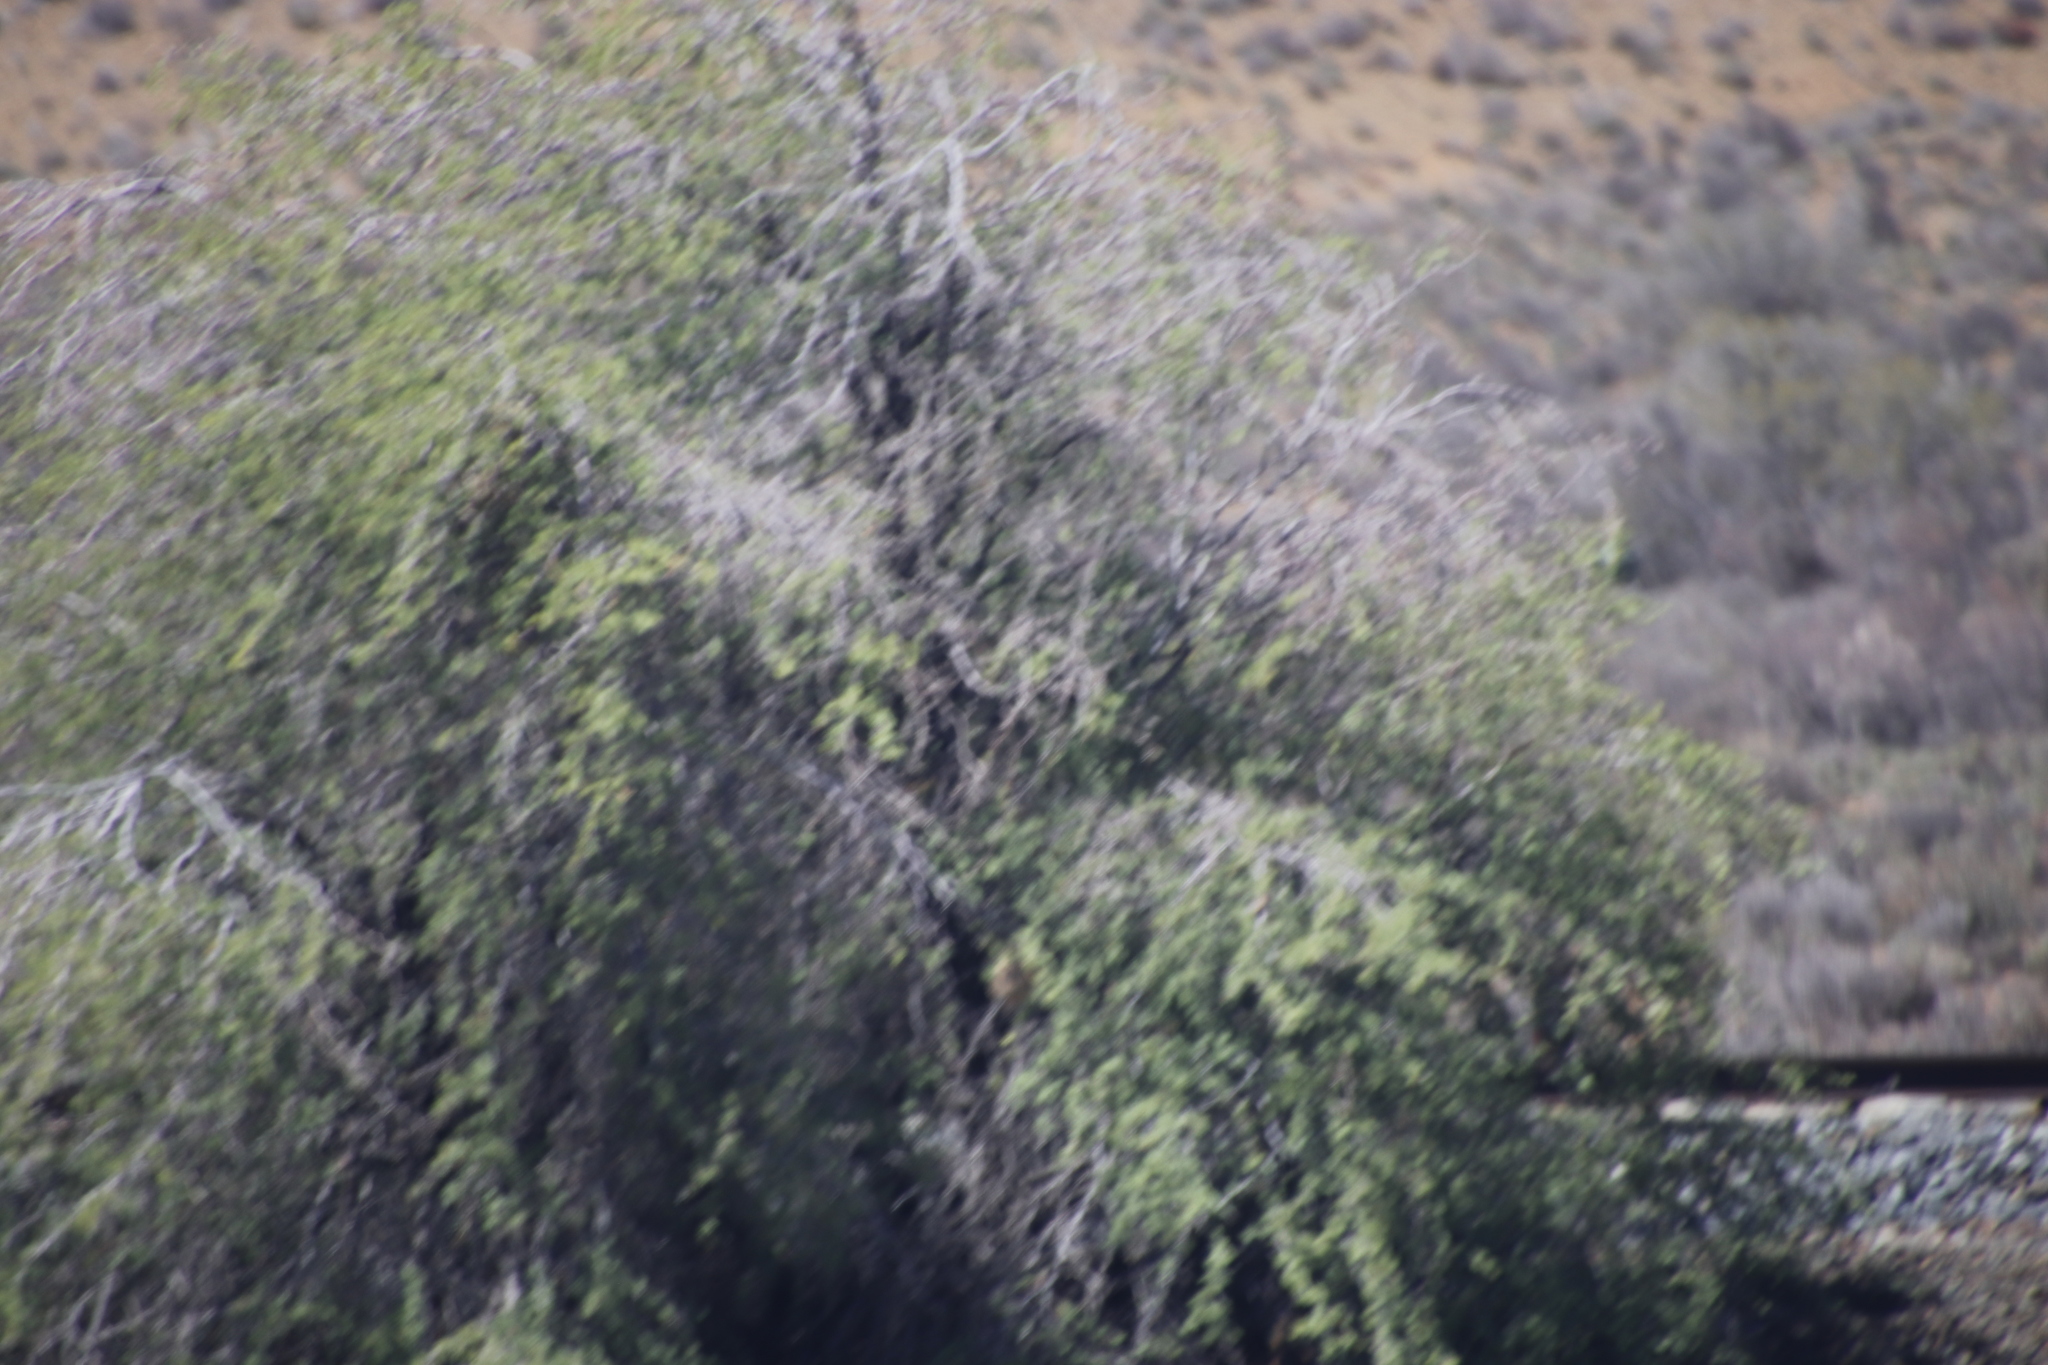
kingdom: Plantae
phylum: Tracheophyta
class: Magnoliopsida
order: Fabales
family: Fabaceae
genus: Vachellia
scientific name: Vachellia karroo
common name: Sweet thorn
